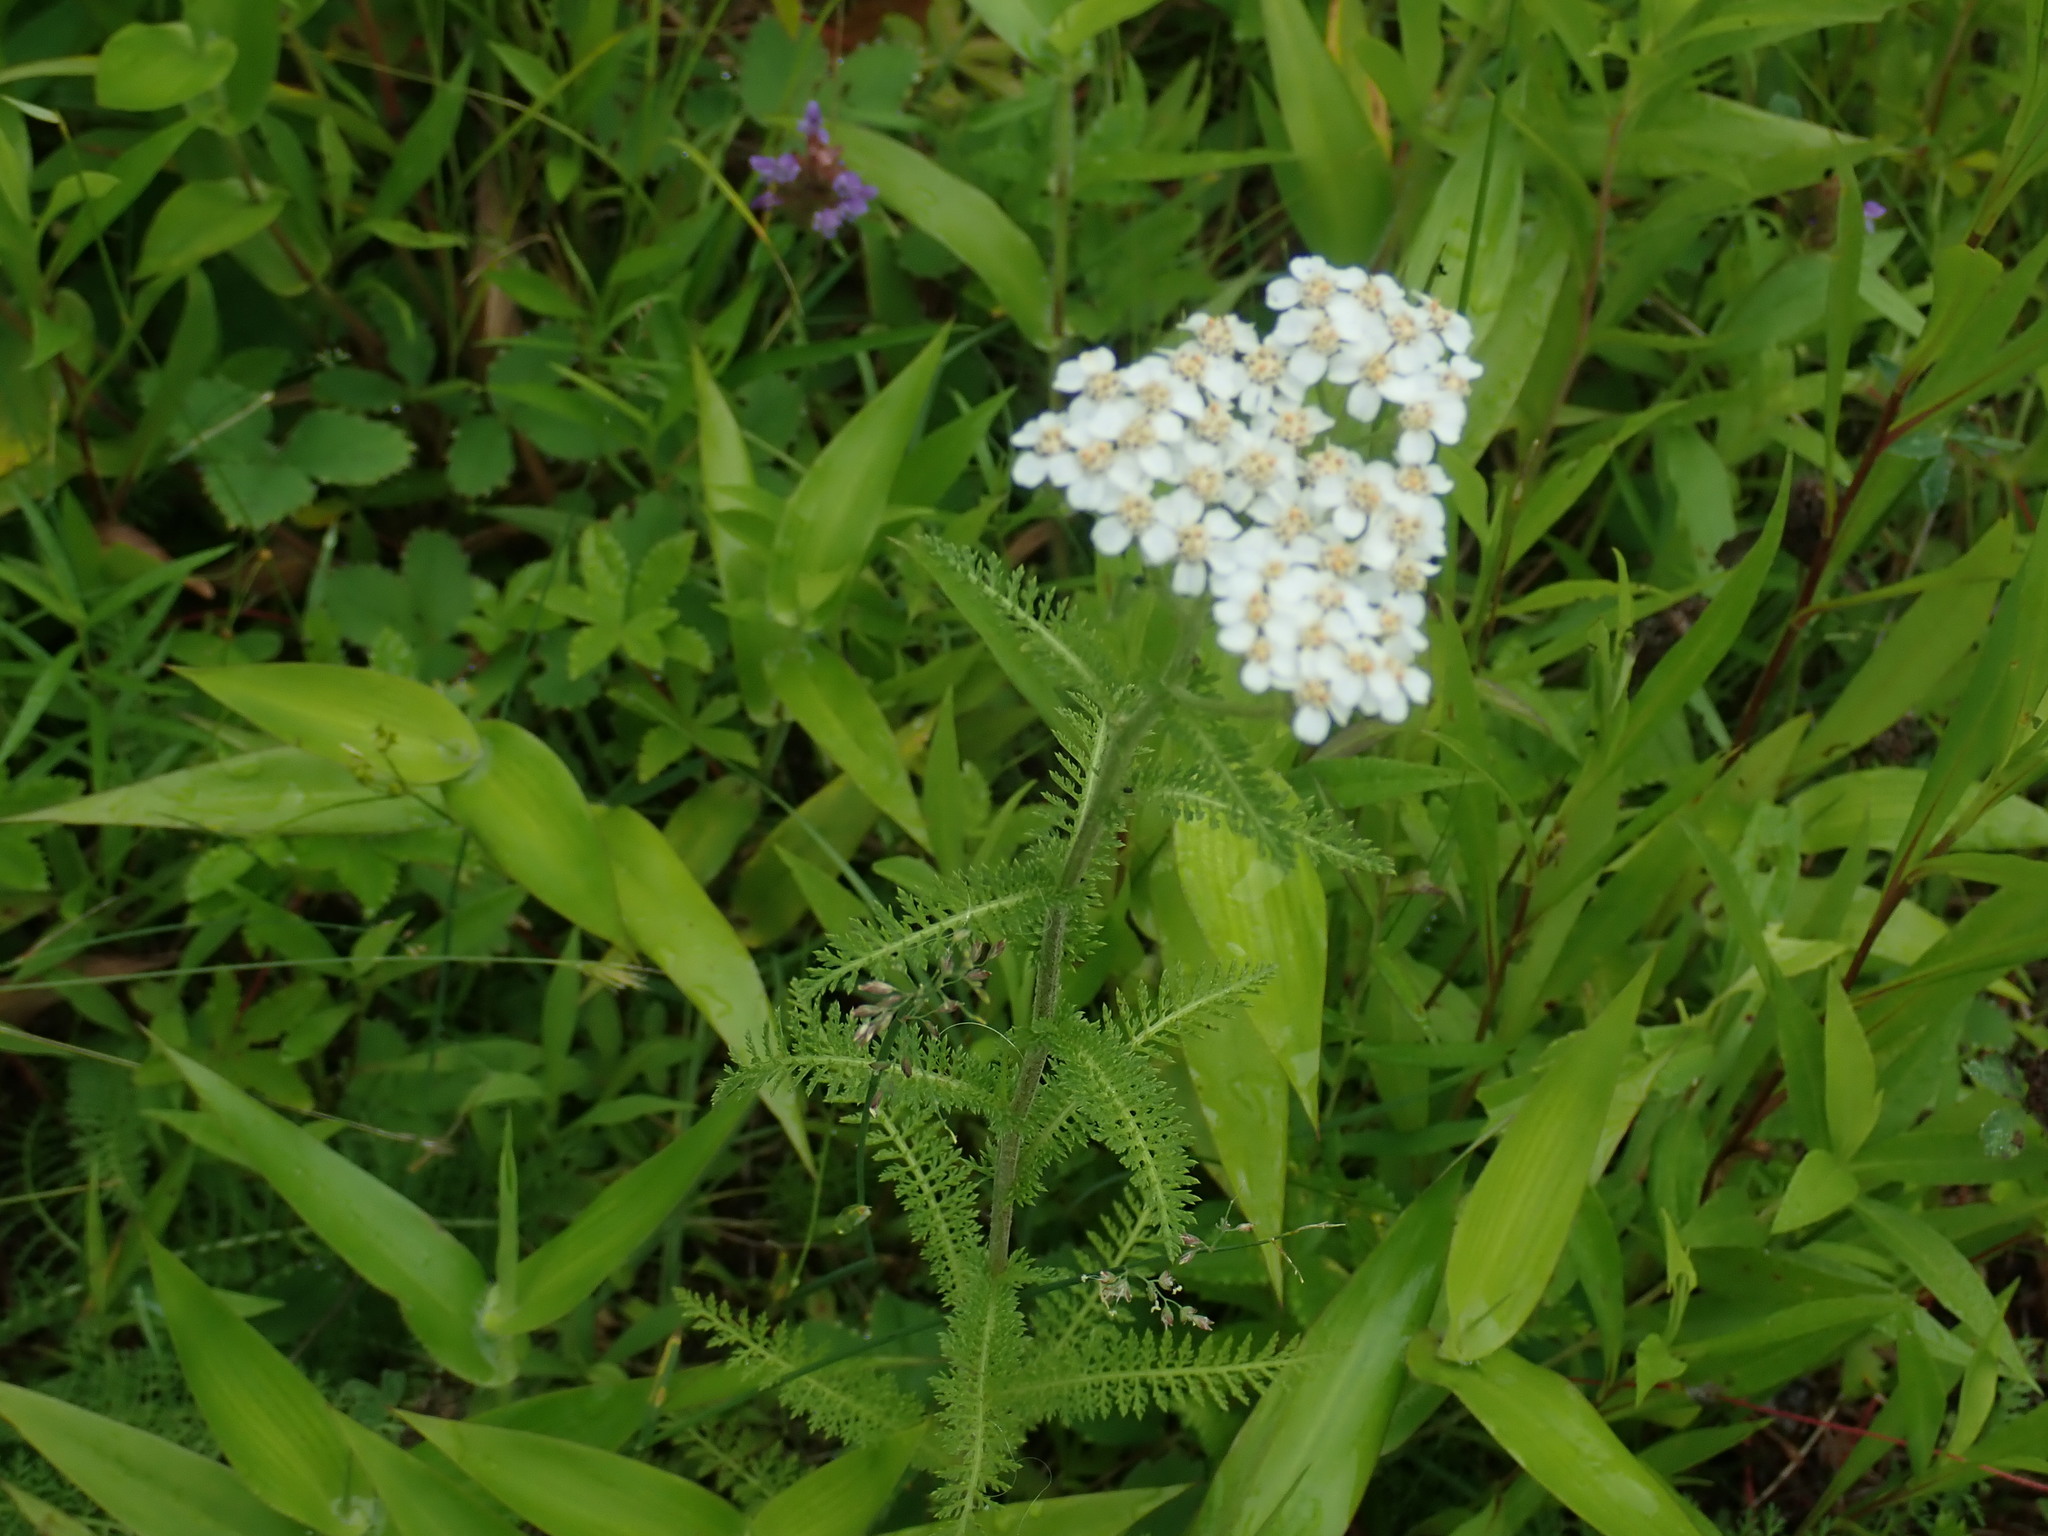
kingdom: Plantae
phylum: Tracheophyta
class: Magnoliopsida
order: Asterales
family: Asteraceae
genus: Achillea
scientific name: Achillea millefolium
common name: Yarrow
